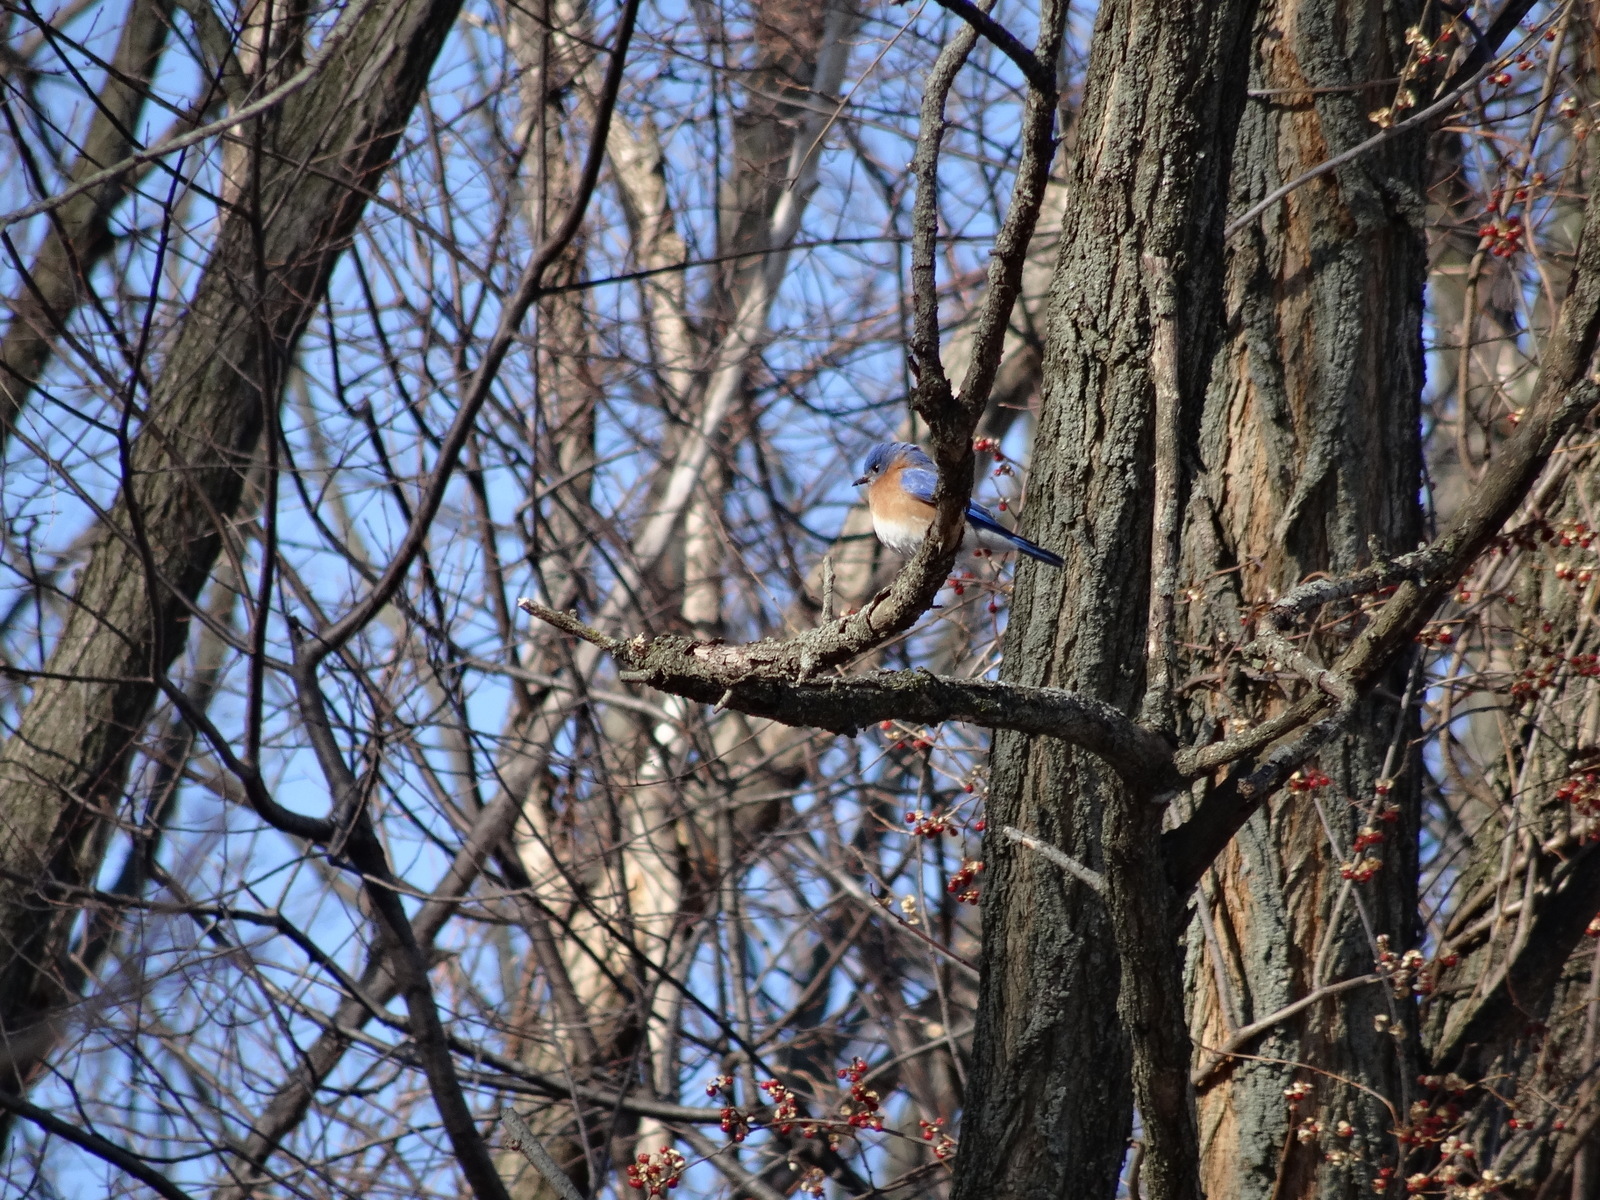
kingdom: Animalia
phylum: Chordata
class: Aves
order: Passeriformes
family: Turdidae
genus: Sialia
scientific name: Sialia sialis
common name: Eastern bluebird
